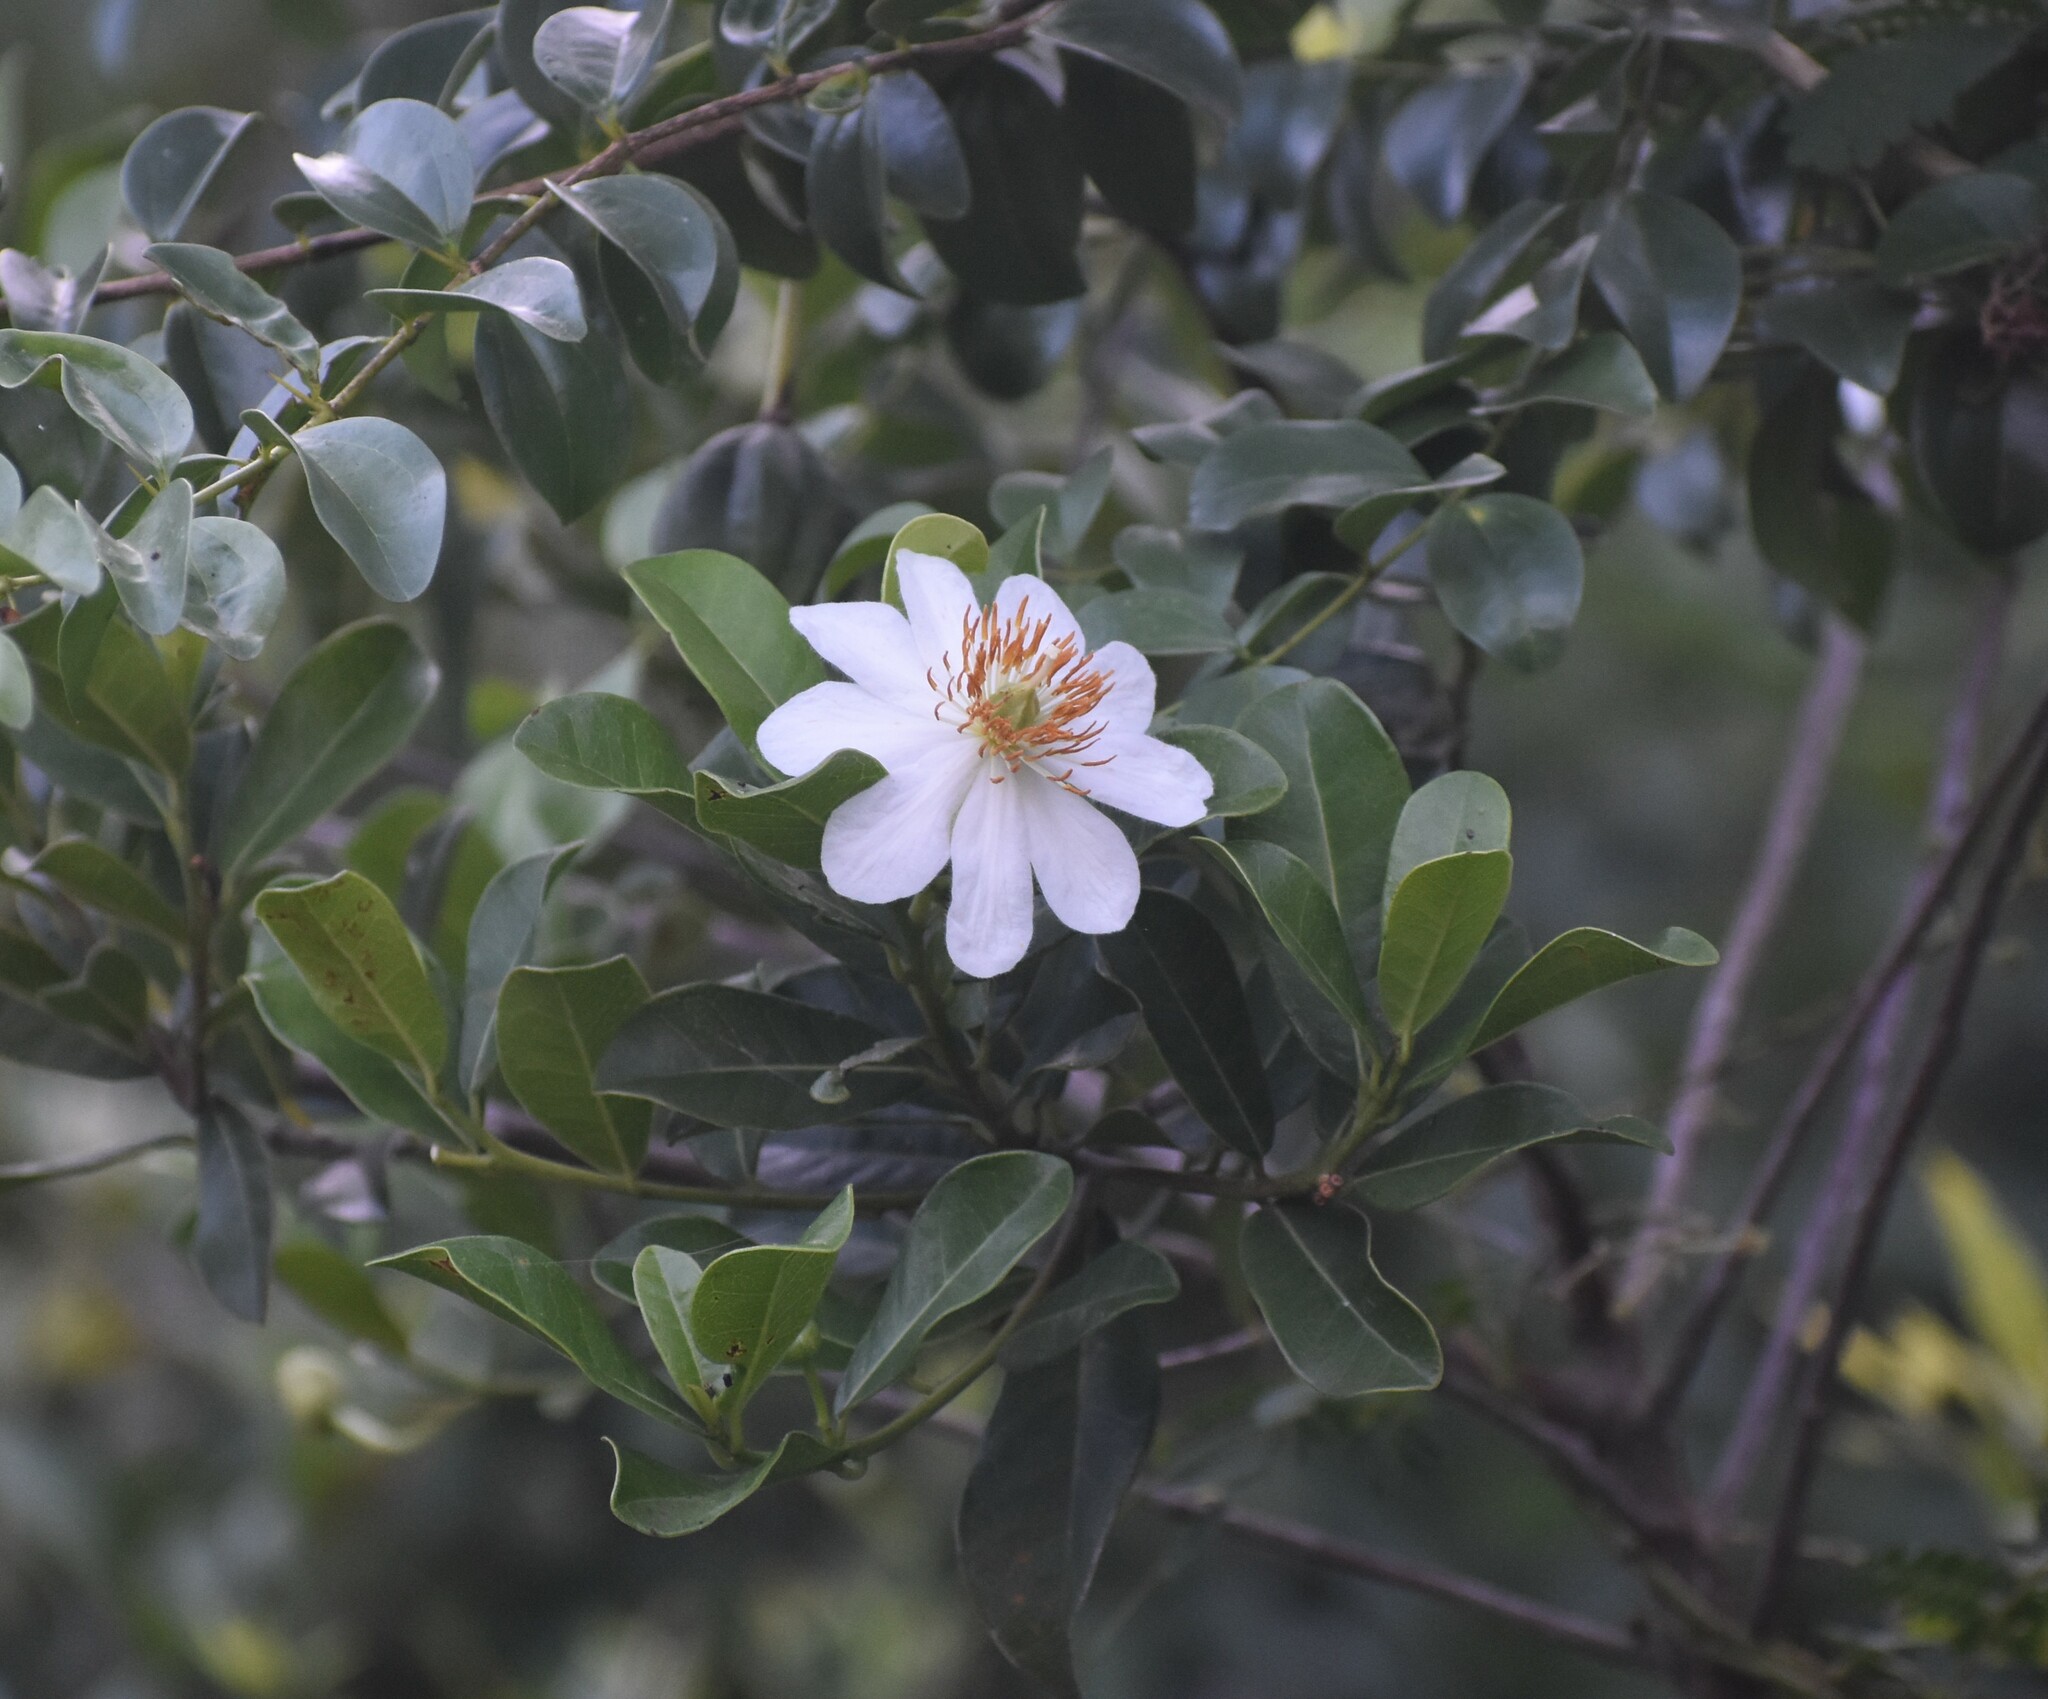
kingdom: Plantae
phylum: Tracheophyta
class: Magnoliopsida
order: Malpighiales
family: Achariaceae
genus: Xylotheca
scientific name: Xylotheca kraussiana
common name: African dog rose
